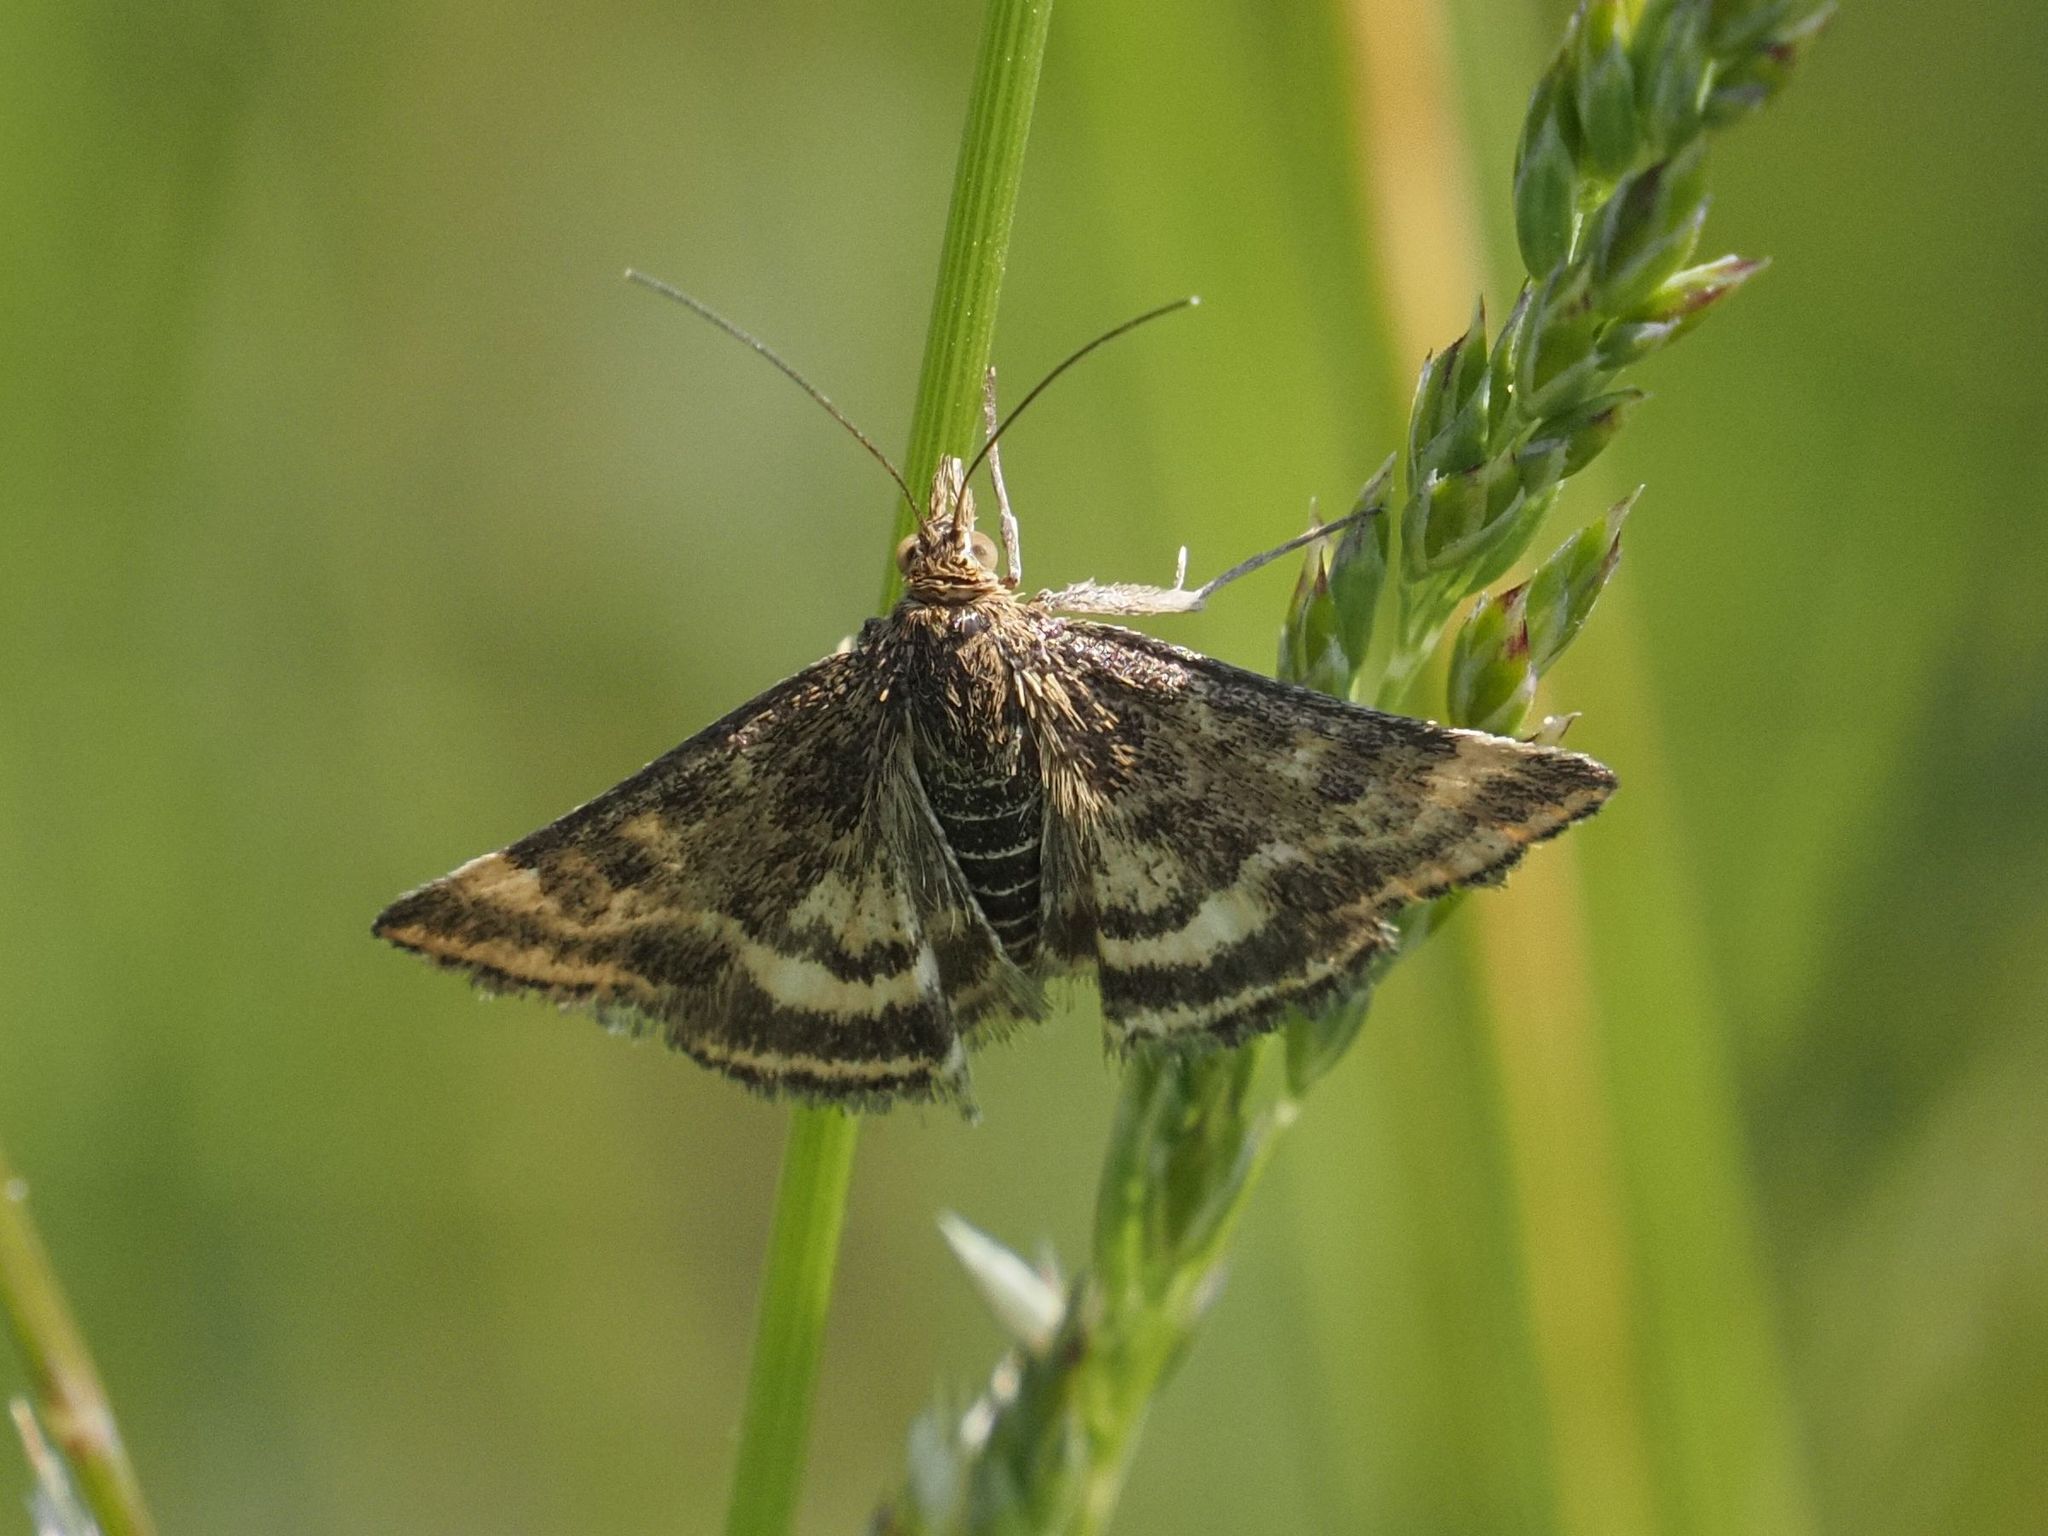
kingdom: Animalia
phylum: Arthropoda
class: Insecta
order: Lepidoptera
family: Crambidae
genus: Pyrausta
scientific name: Pyrausta despicata
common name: Straw-barred pearl
